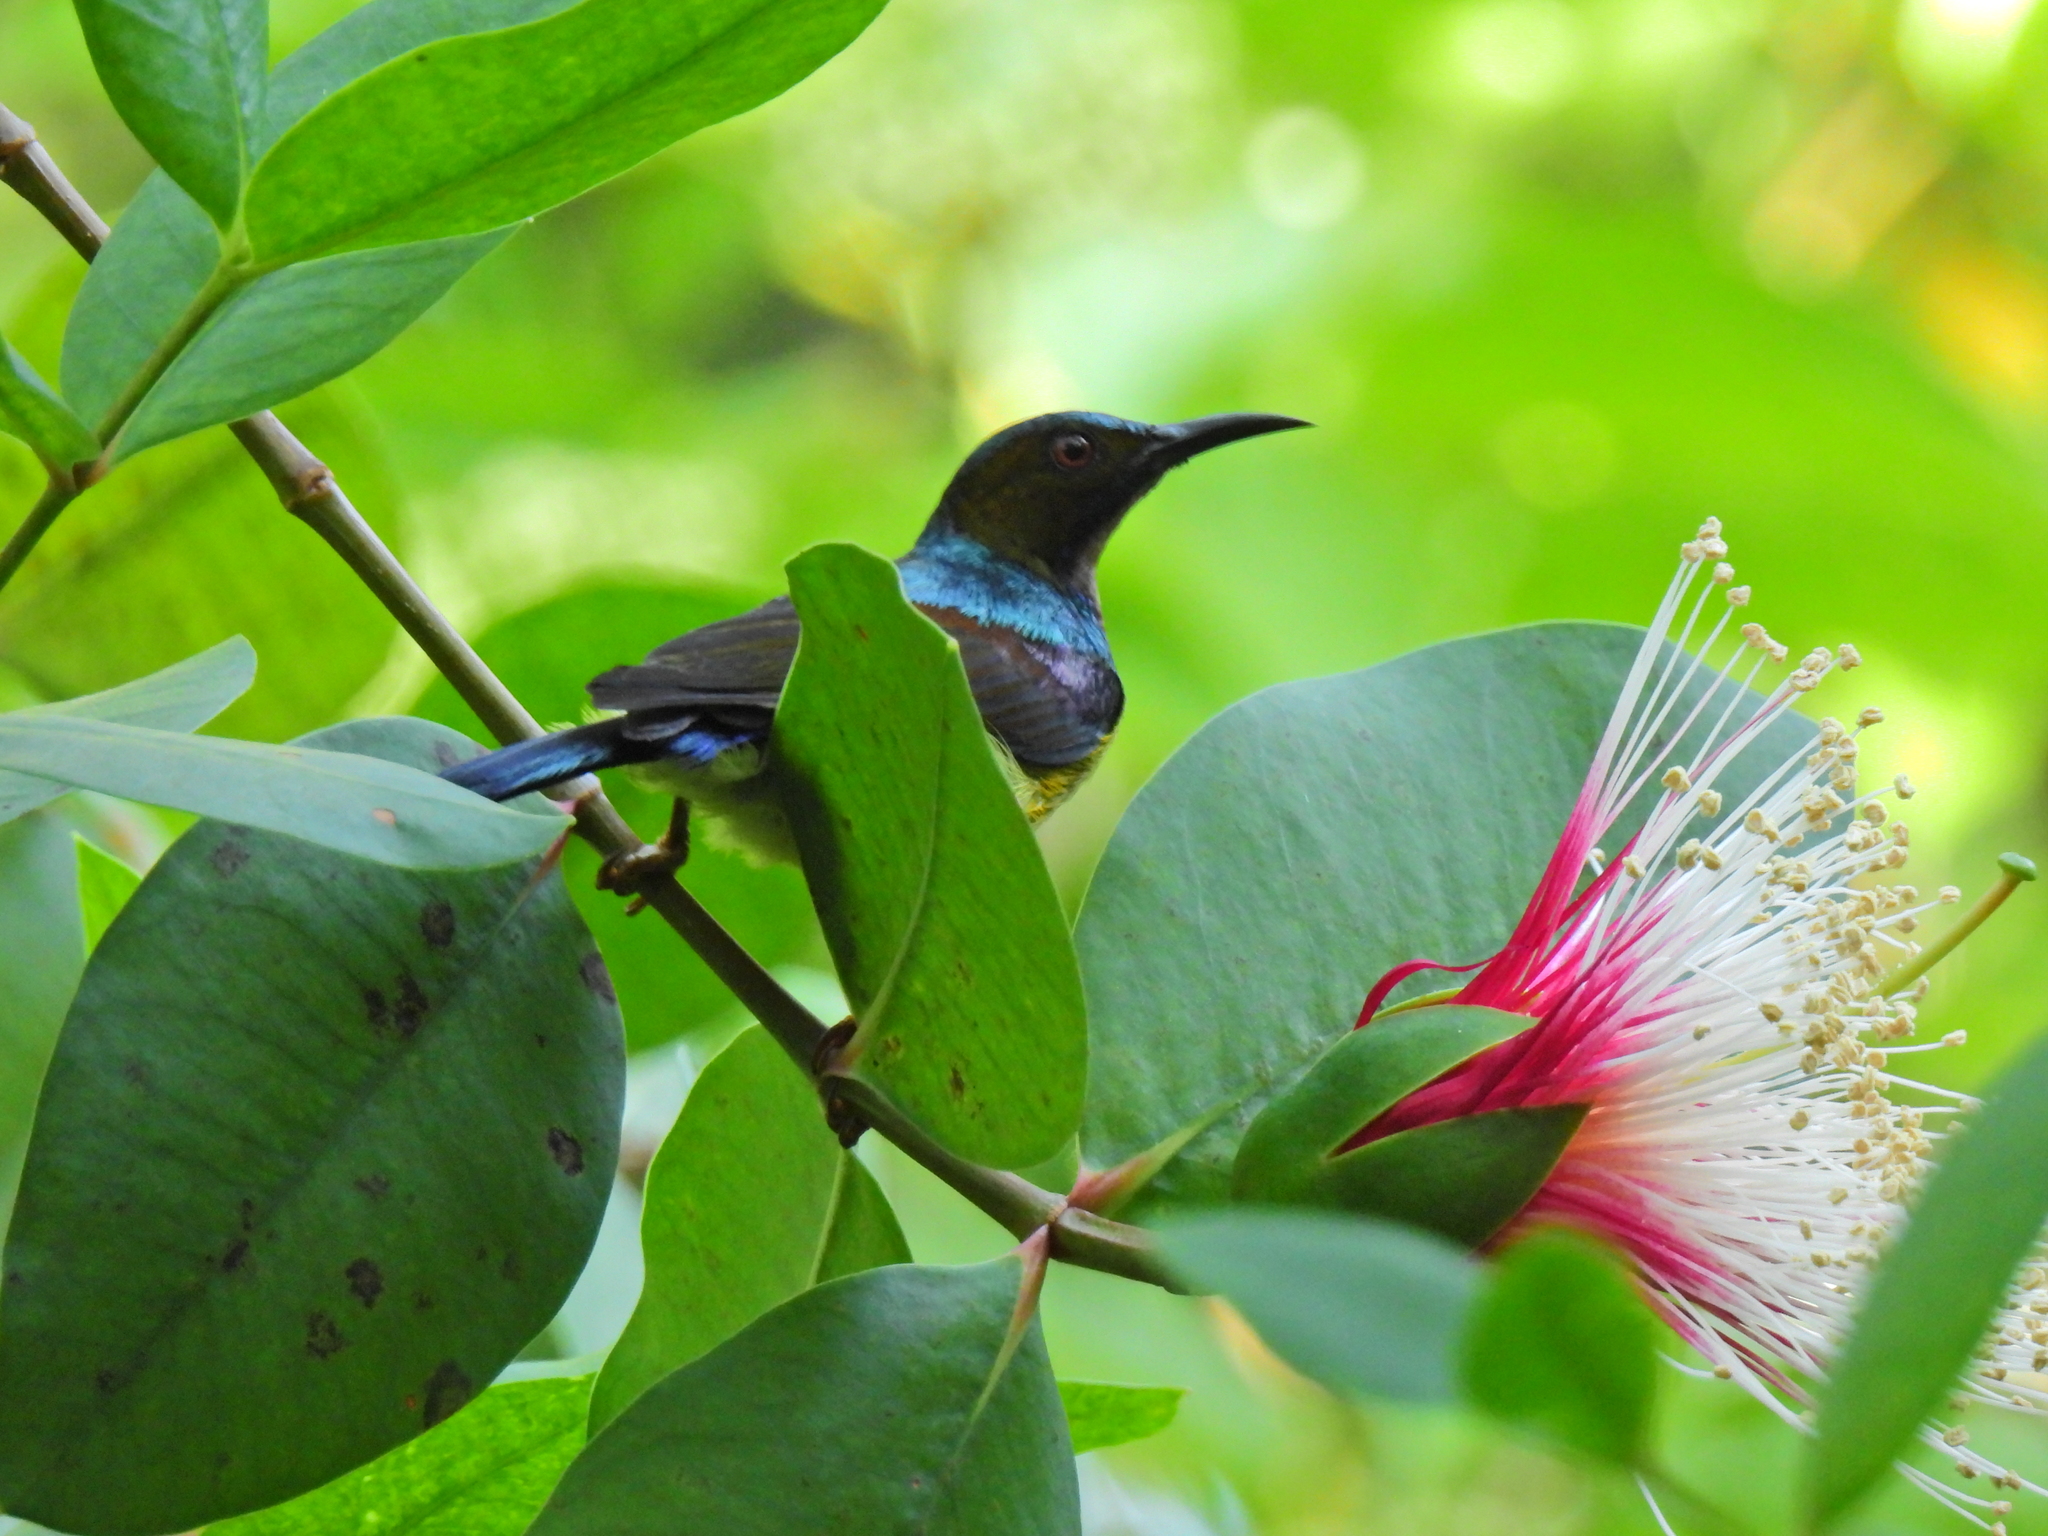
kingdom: Animalia
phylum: Chordata
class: Aves
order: Passeriformes
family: Nectariniidae
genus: Anthreptes
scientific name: Anthreptes malacensis
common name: Brown-throated sunbird
